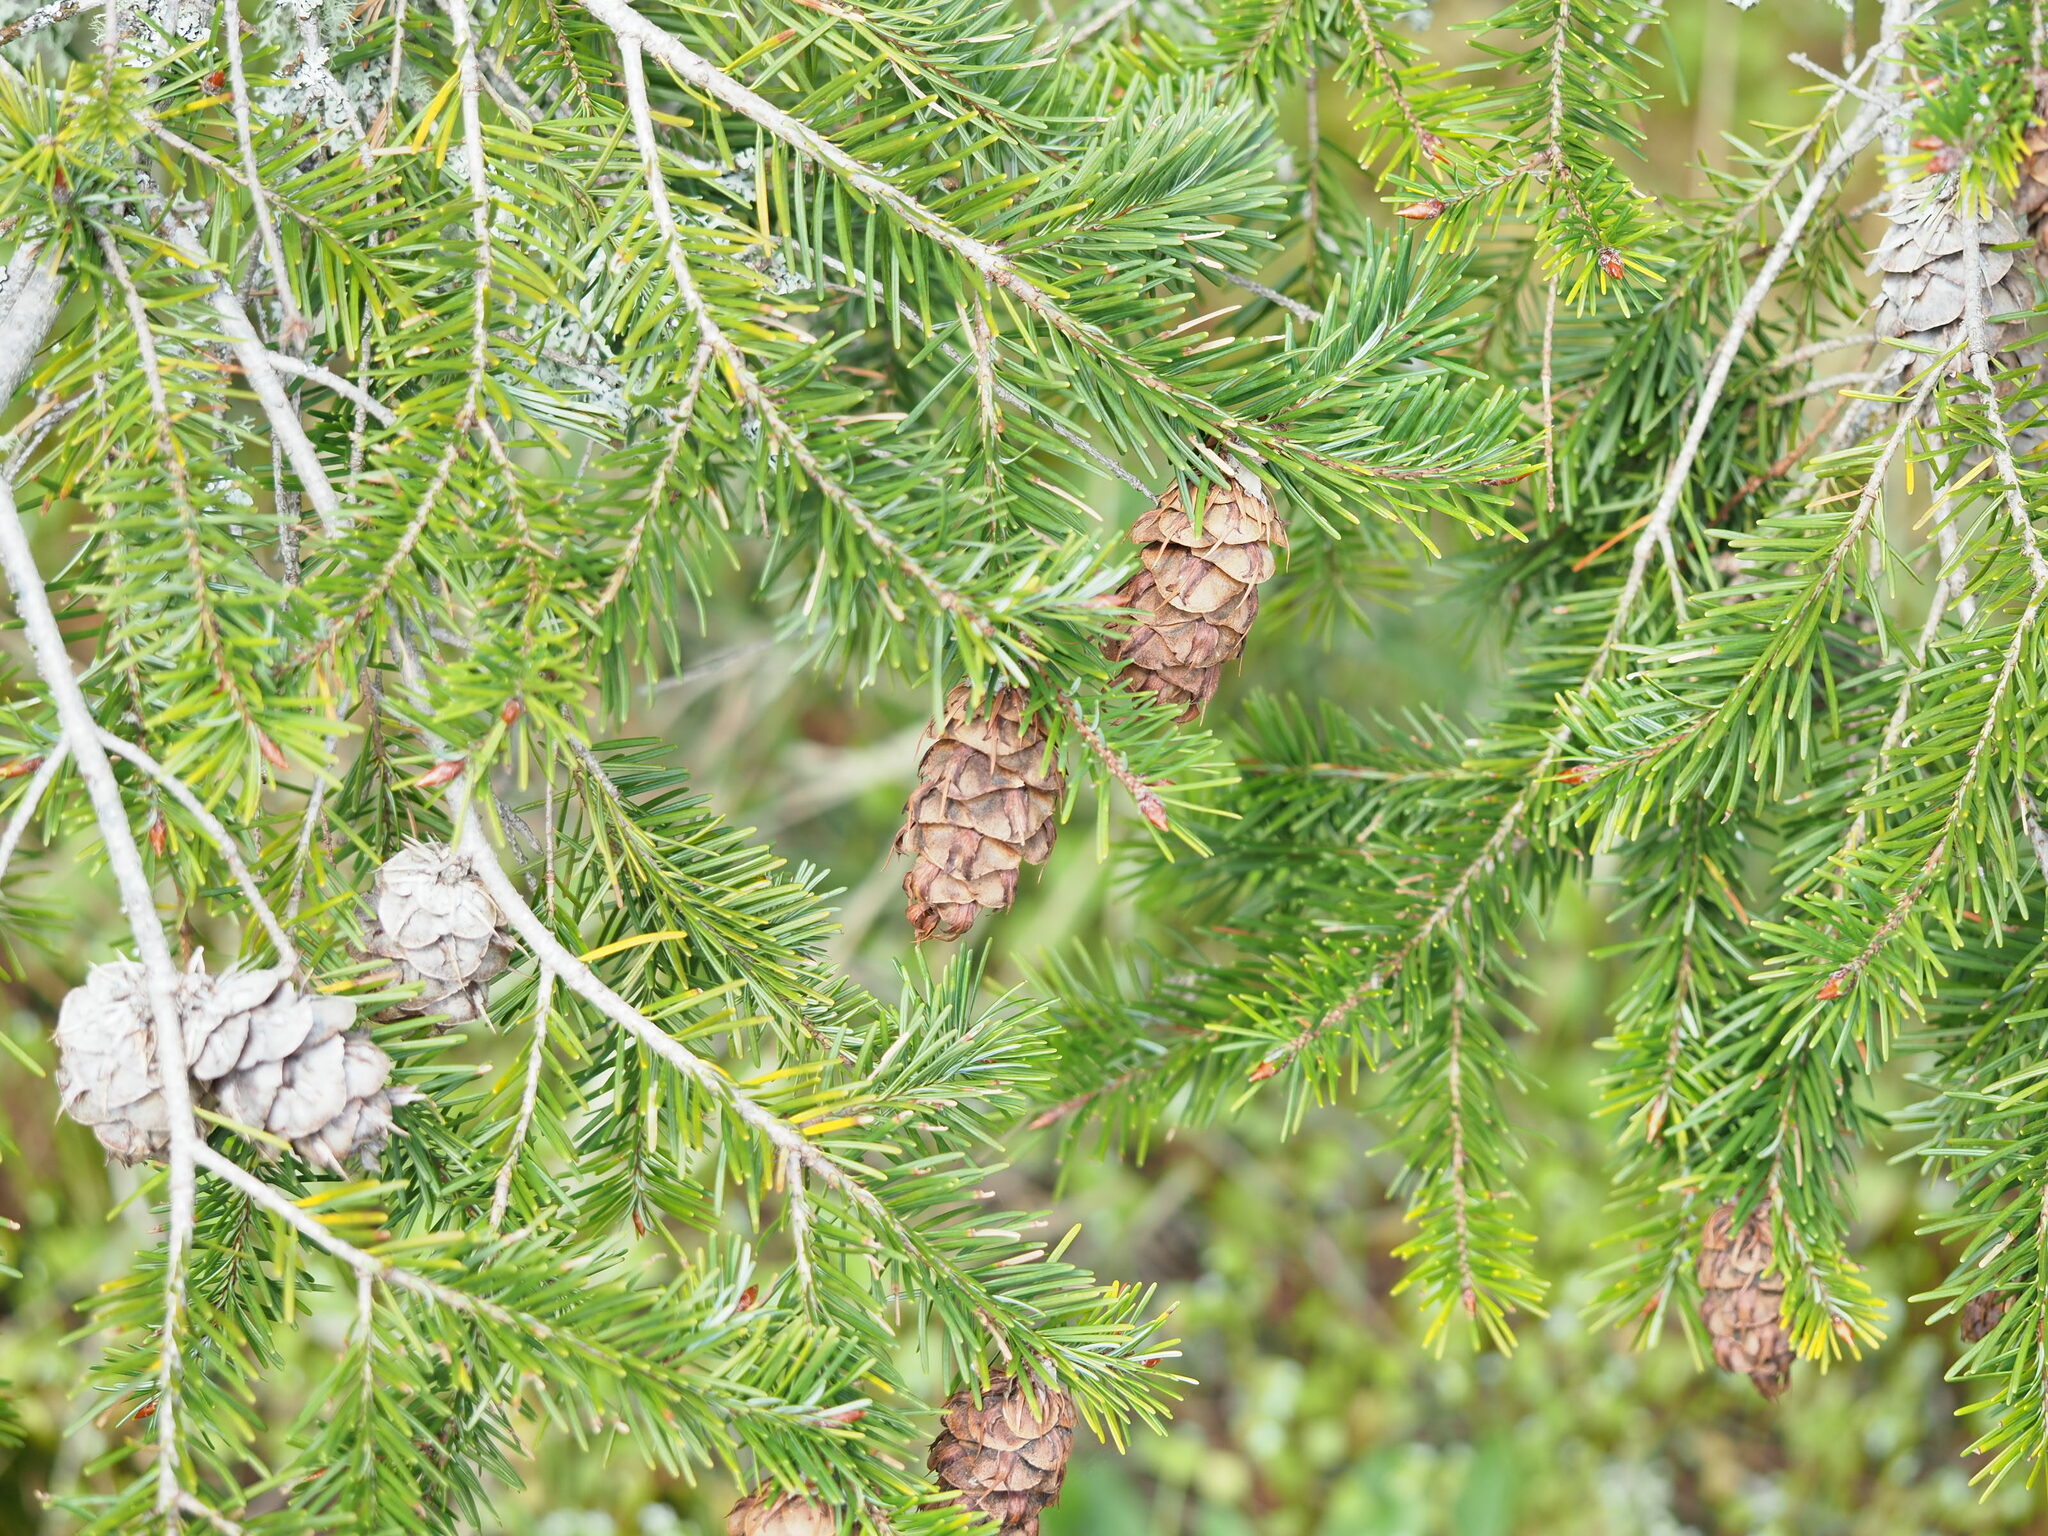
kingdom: Plantae
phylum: Tracheophyta
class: Pinopsida
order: Pinales
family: Pinaceae
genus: Pseudotsuga
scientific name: Pseudotsuga menziesii
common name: Douglas fir
